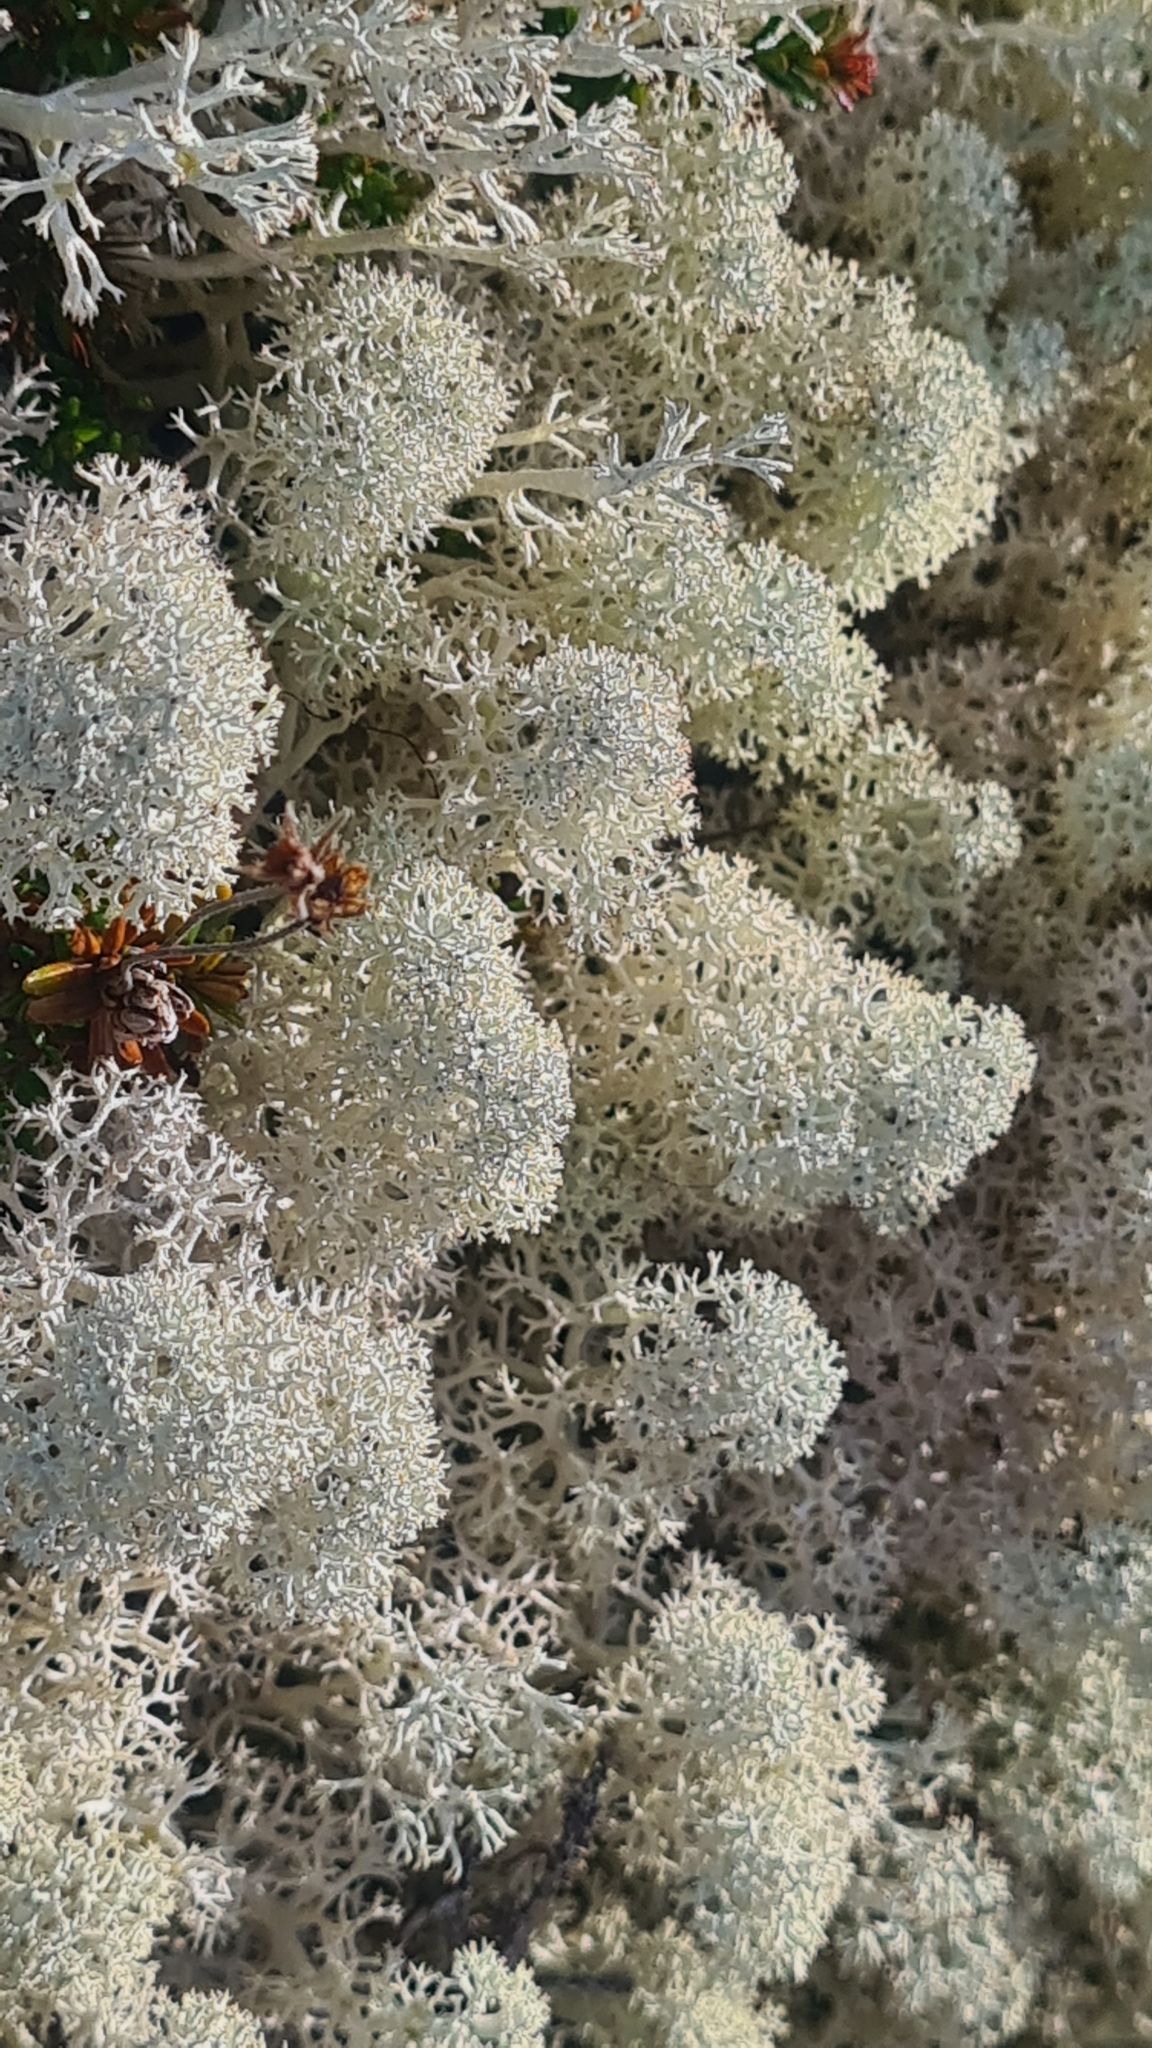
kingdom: Fungi
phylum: Ascomycota
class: Lecanoromycetes
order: Lecanorales
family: Cladoniaceae
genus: Cladonia
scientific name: Cladonia stellaris
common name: Star-tipped reindeer lichen
